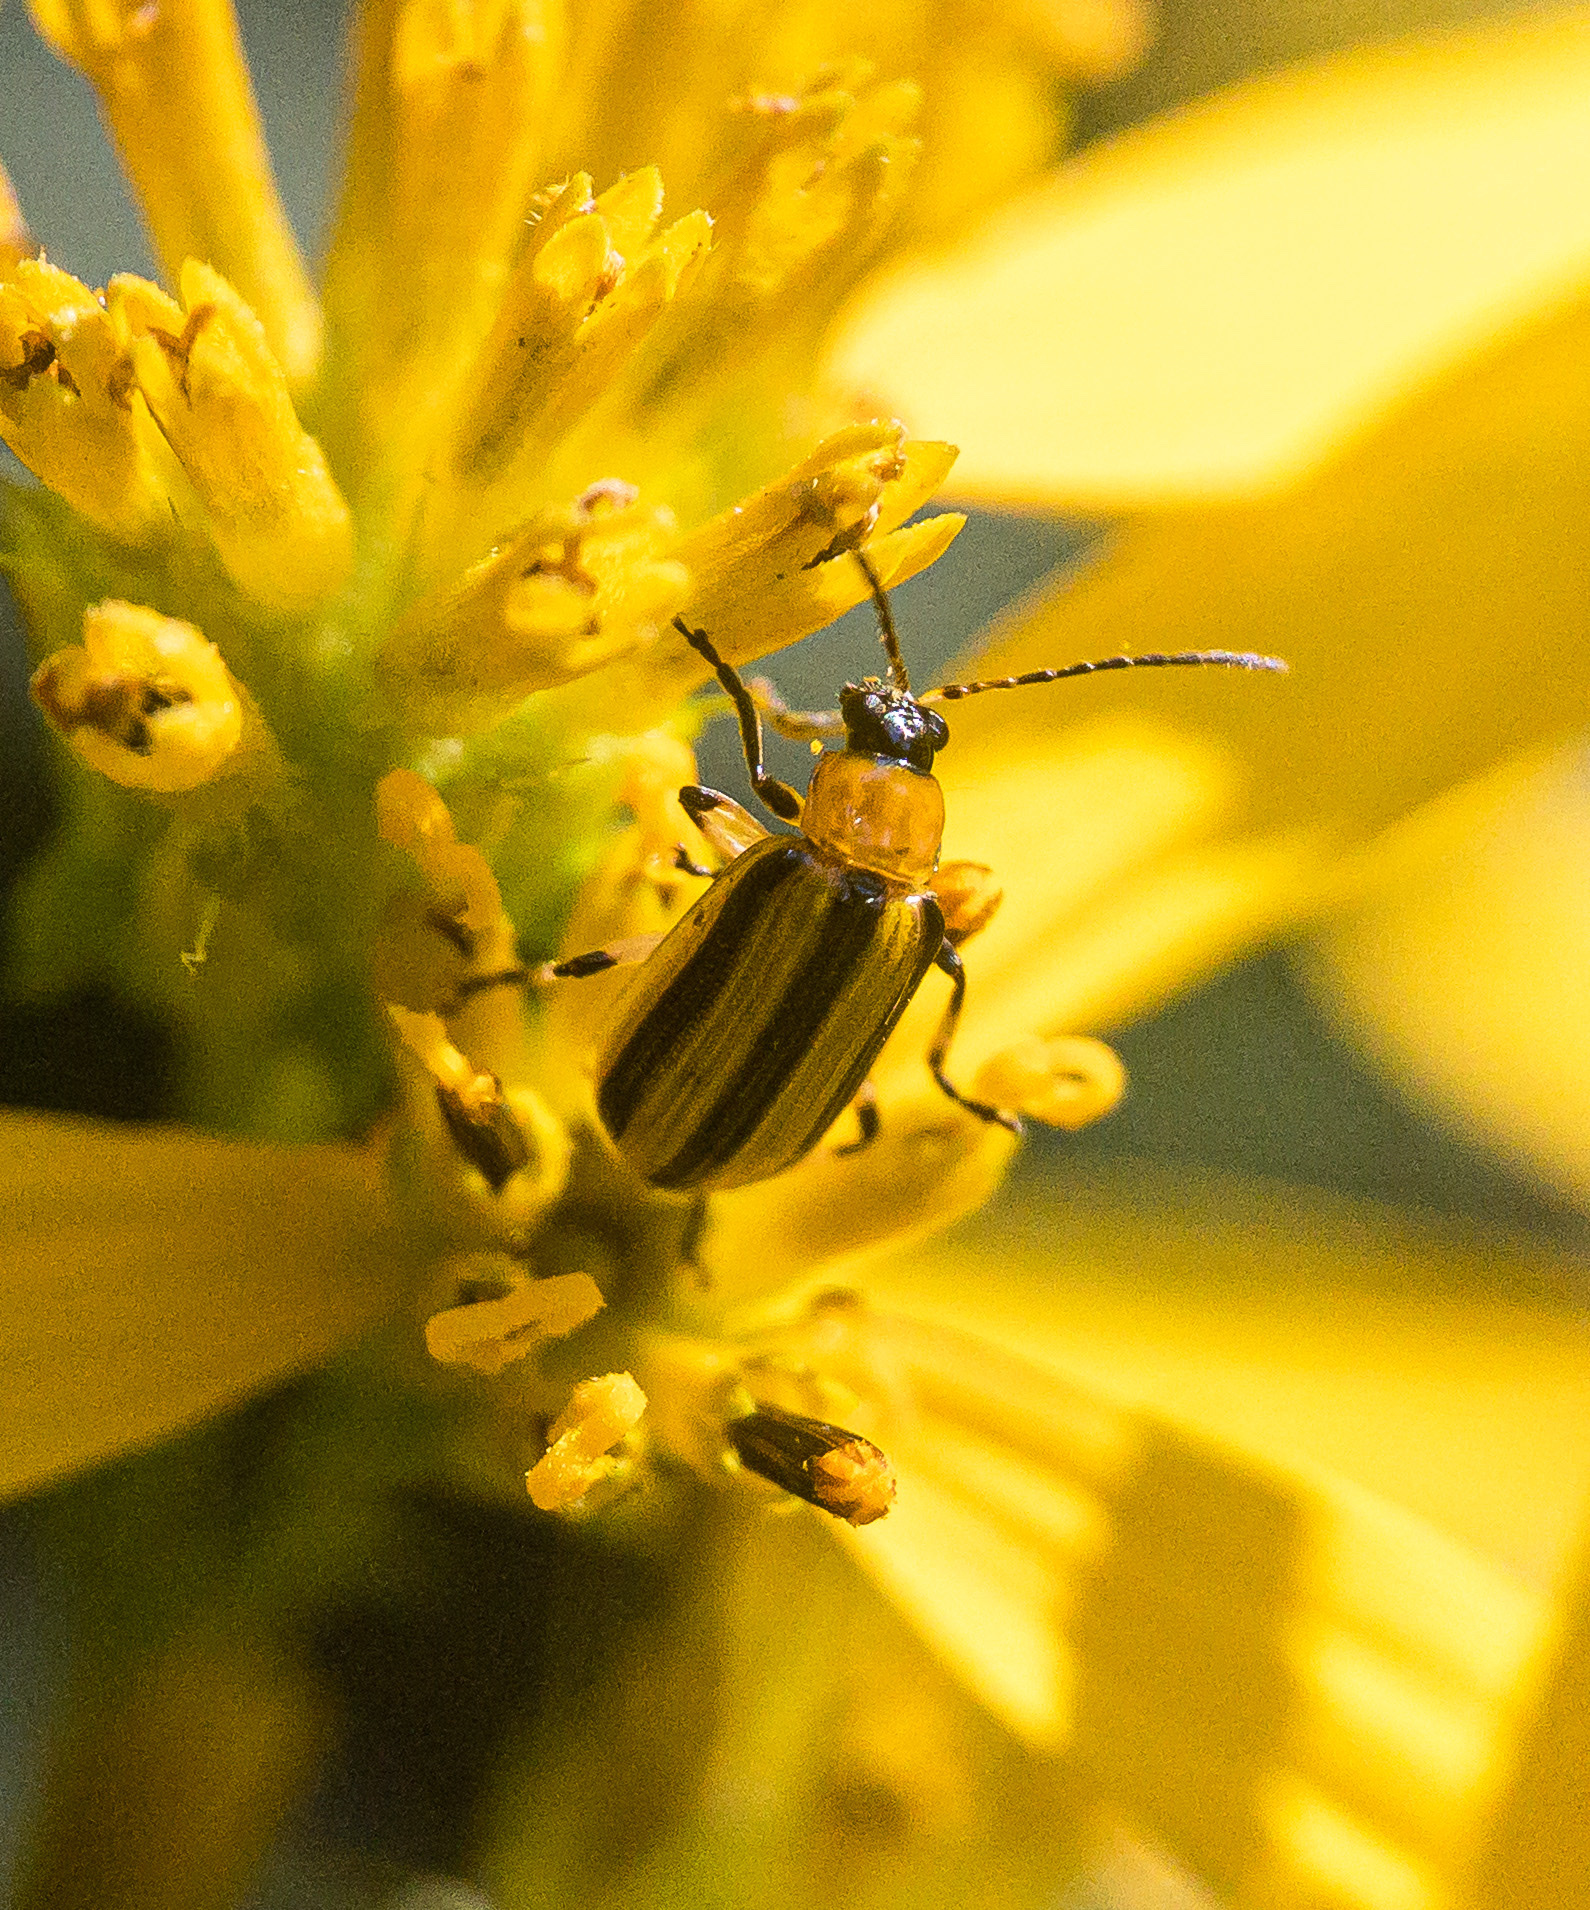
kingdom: Animalia
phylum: Arthropoda
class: Insecta
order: Coleoptera
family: Chrysomelidae
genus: Acalymma
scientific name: Acalymma vittatum
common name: Striped cucumber beetle
